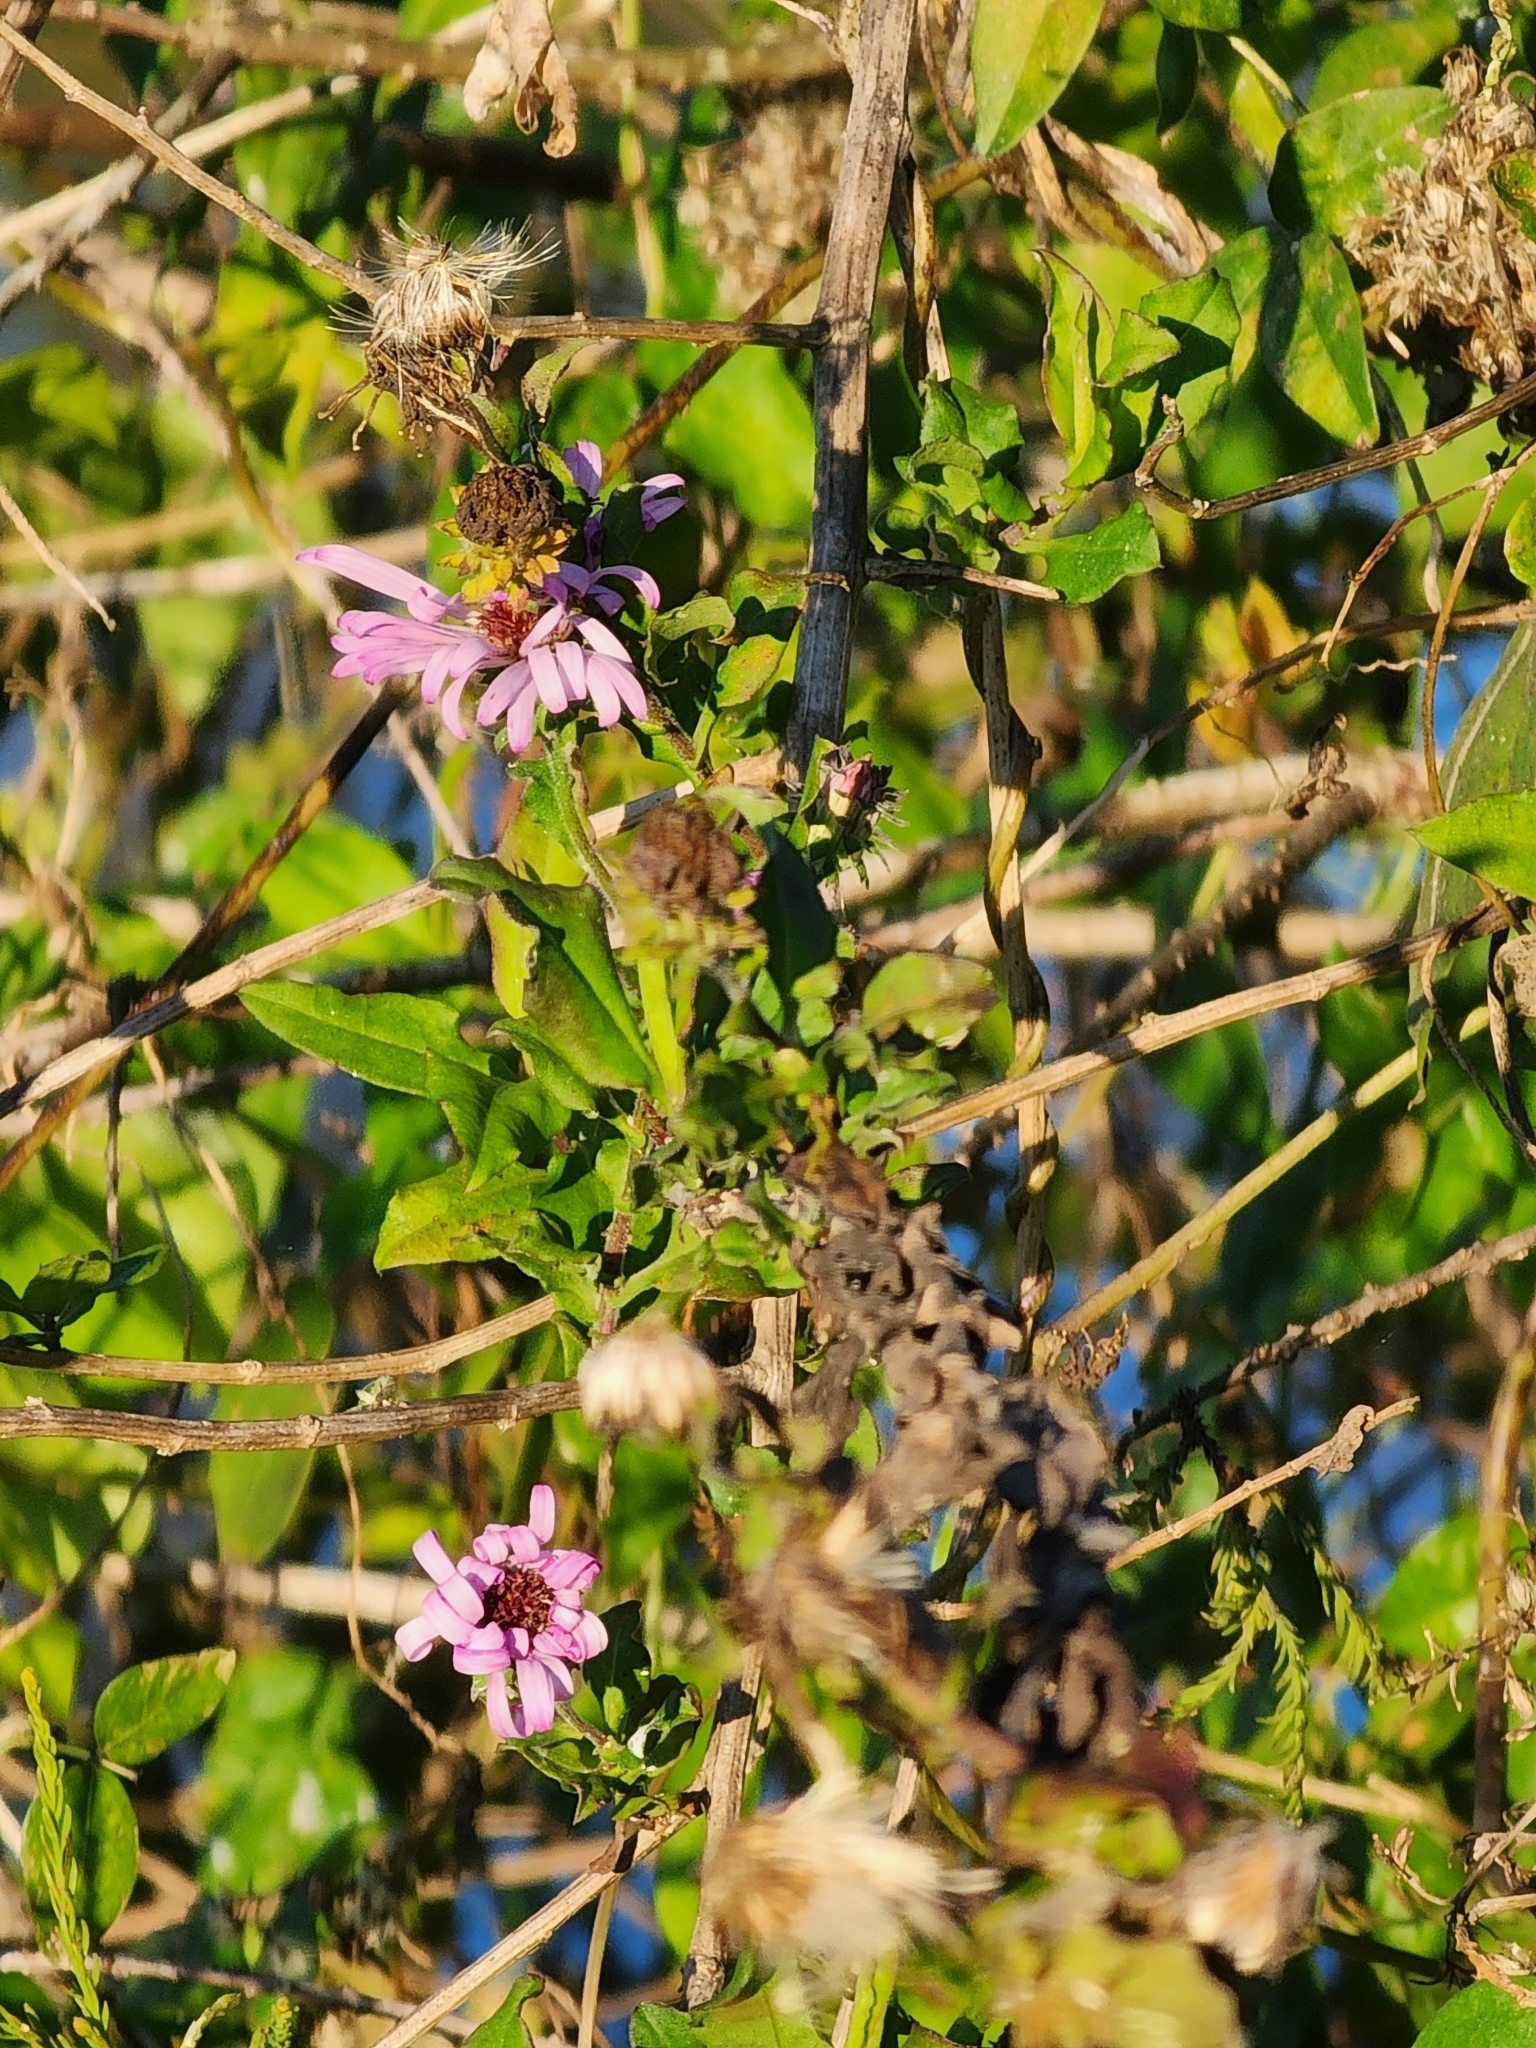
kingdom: Plantae
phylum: Tracheophyta
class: Magnoliopsida
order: Asterales
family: Asteraceae
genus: Ampelaster
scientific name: Ampelaster carolinianus
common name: Climbing aster
